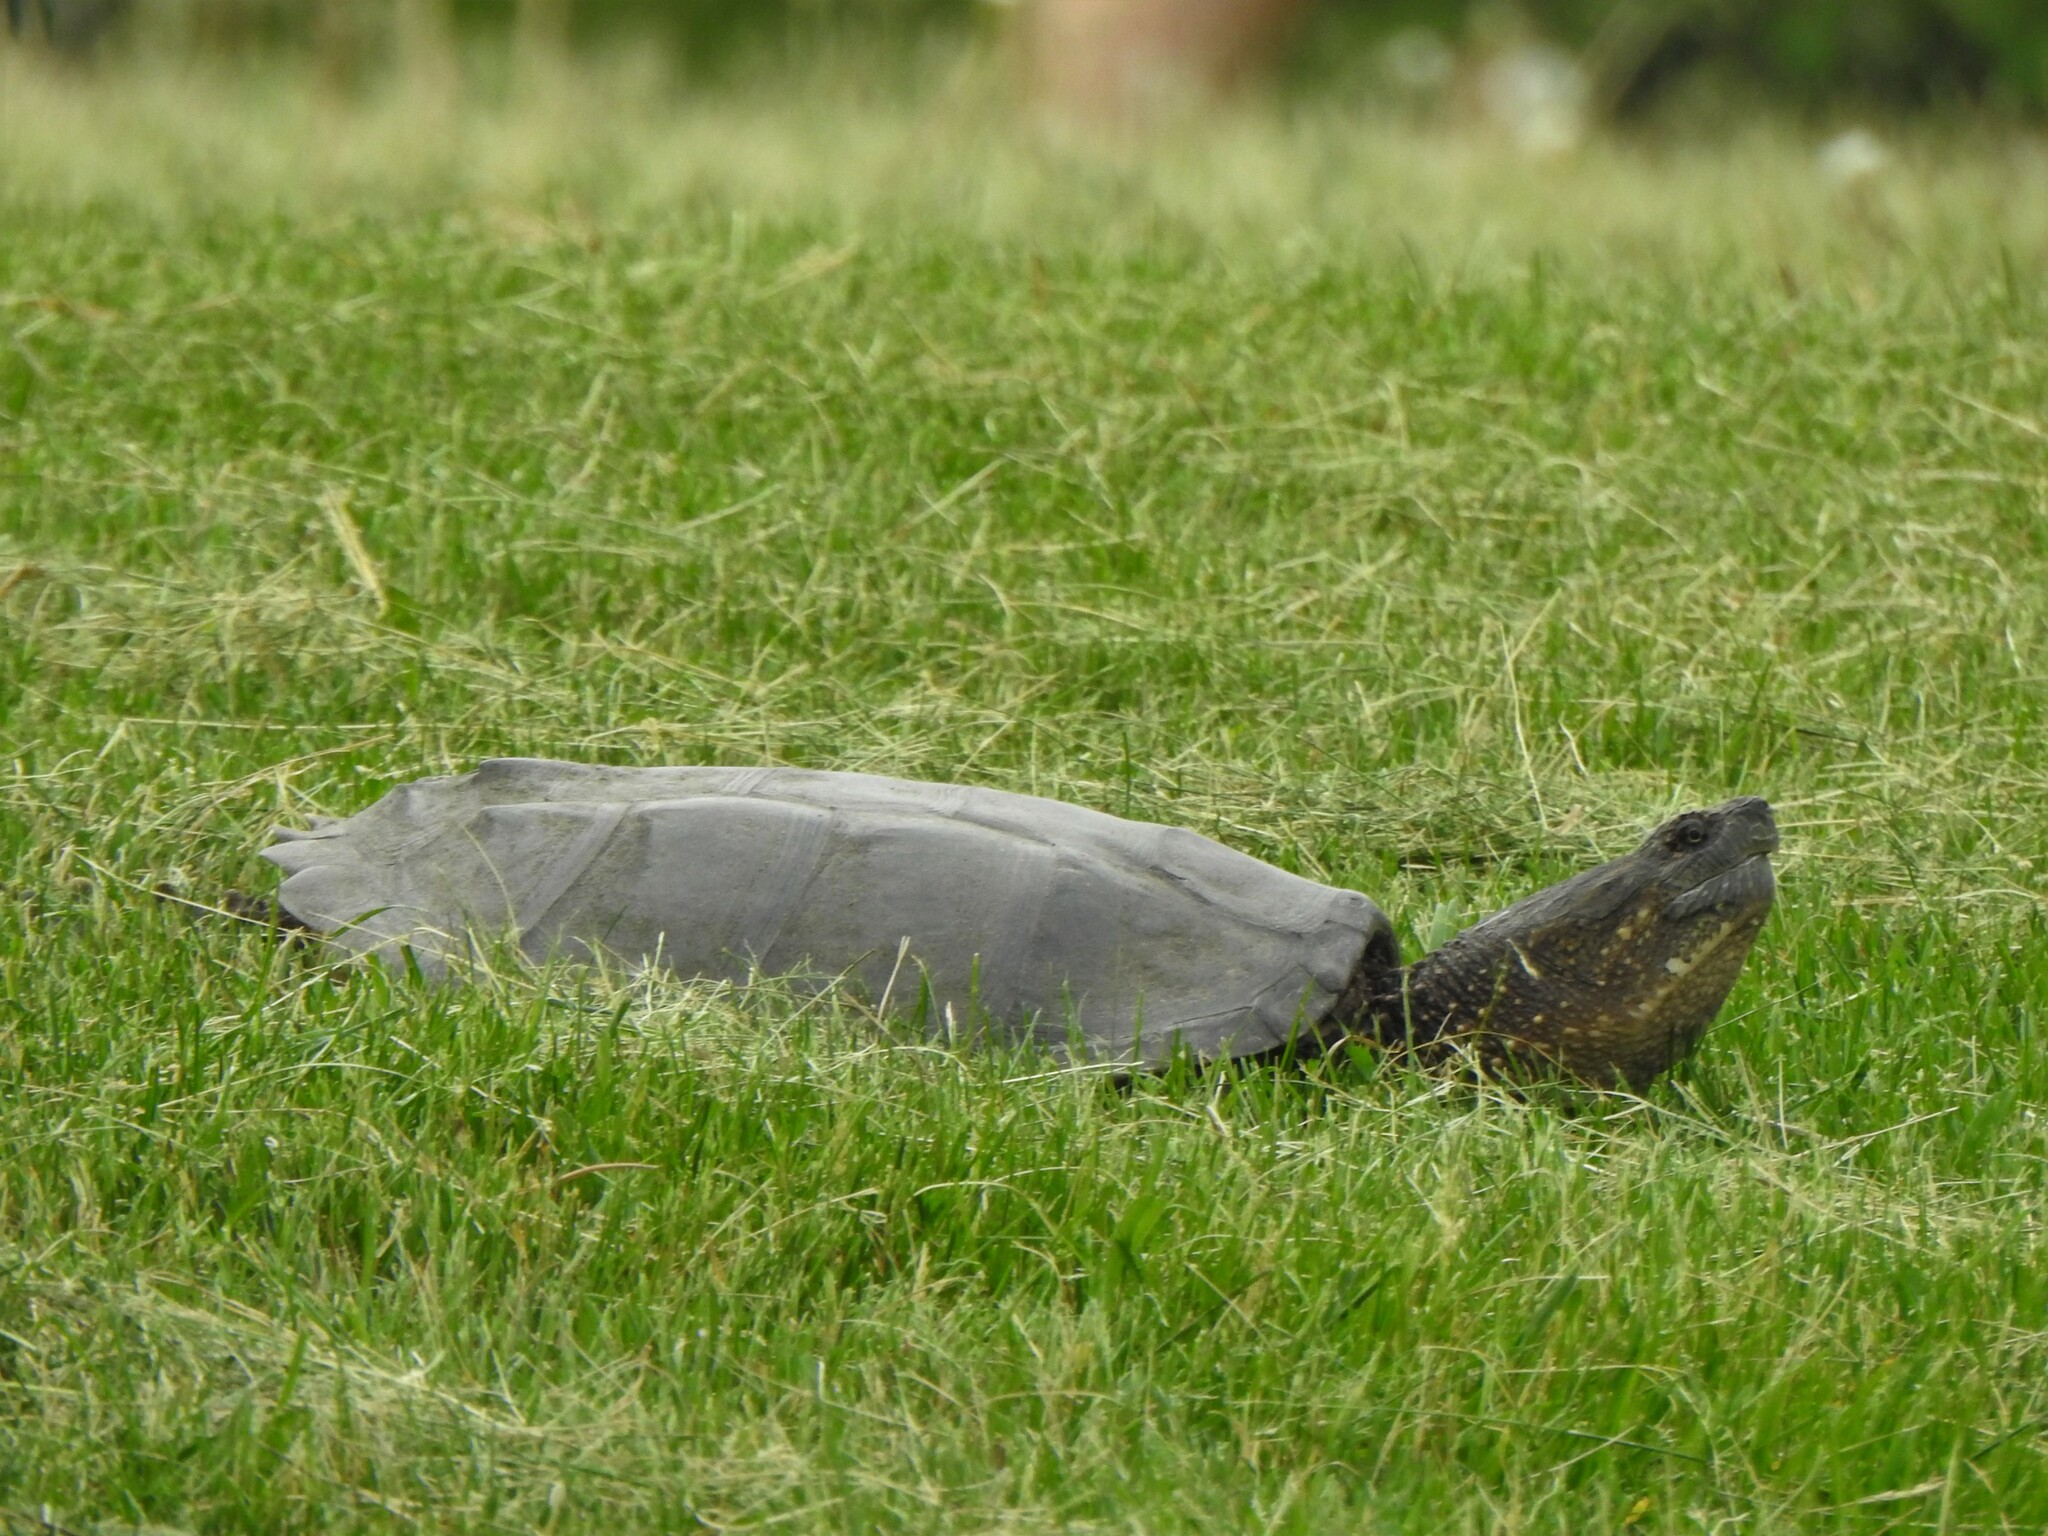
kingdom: Animalia
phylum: Chordata
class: Testudines
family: Chelydridae
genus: Chelydra
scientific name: Chelydra serpentina
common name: Common snapping turtle
